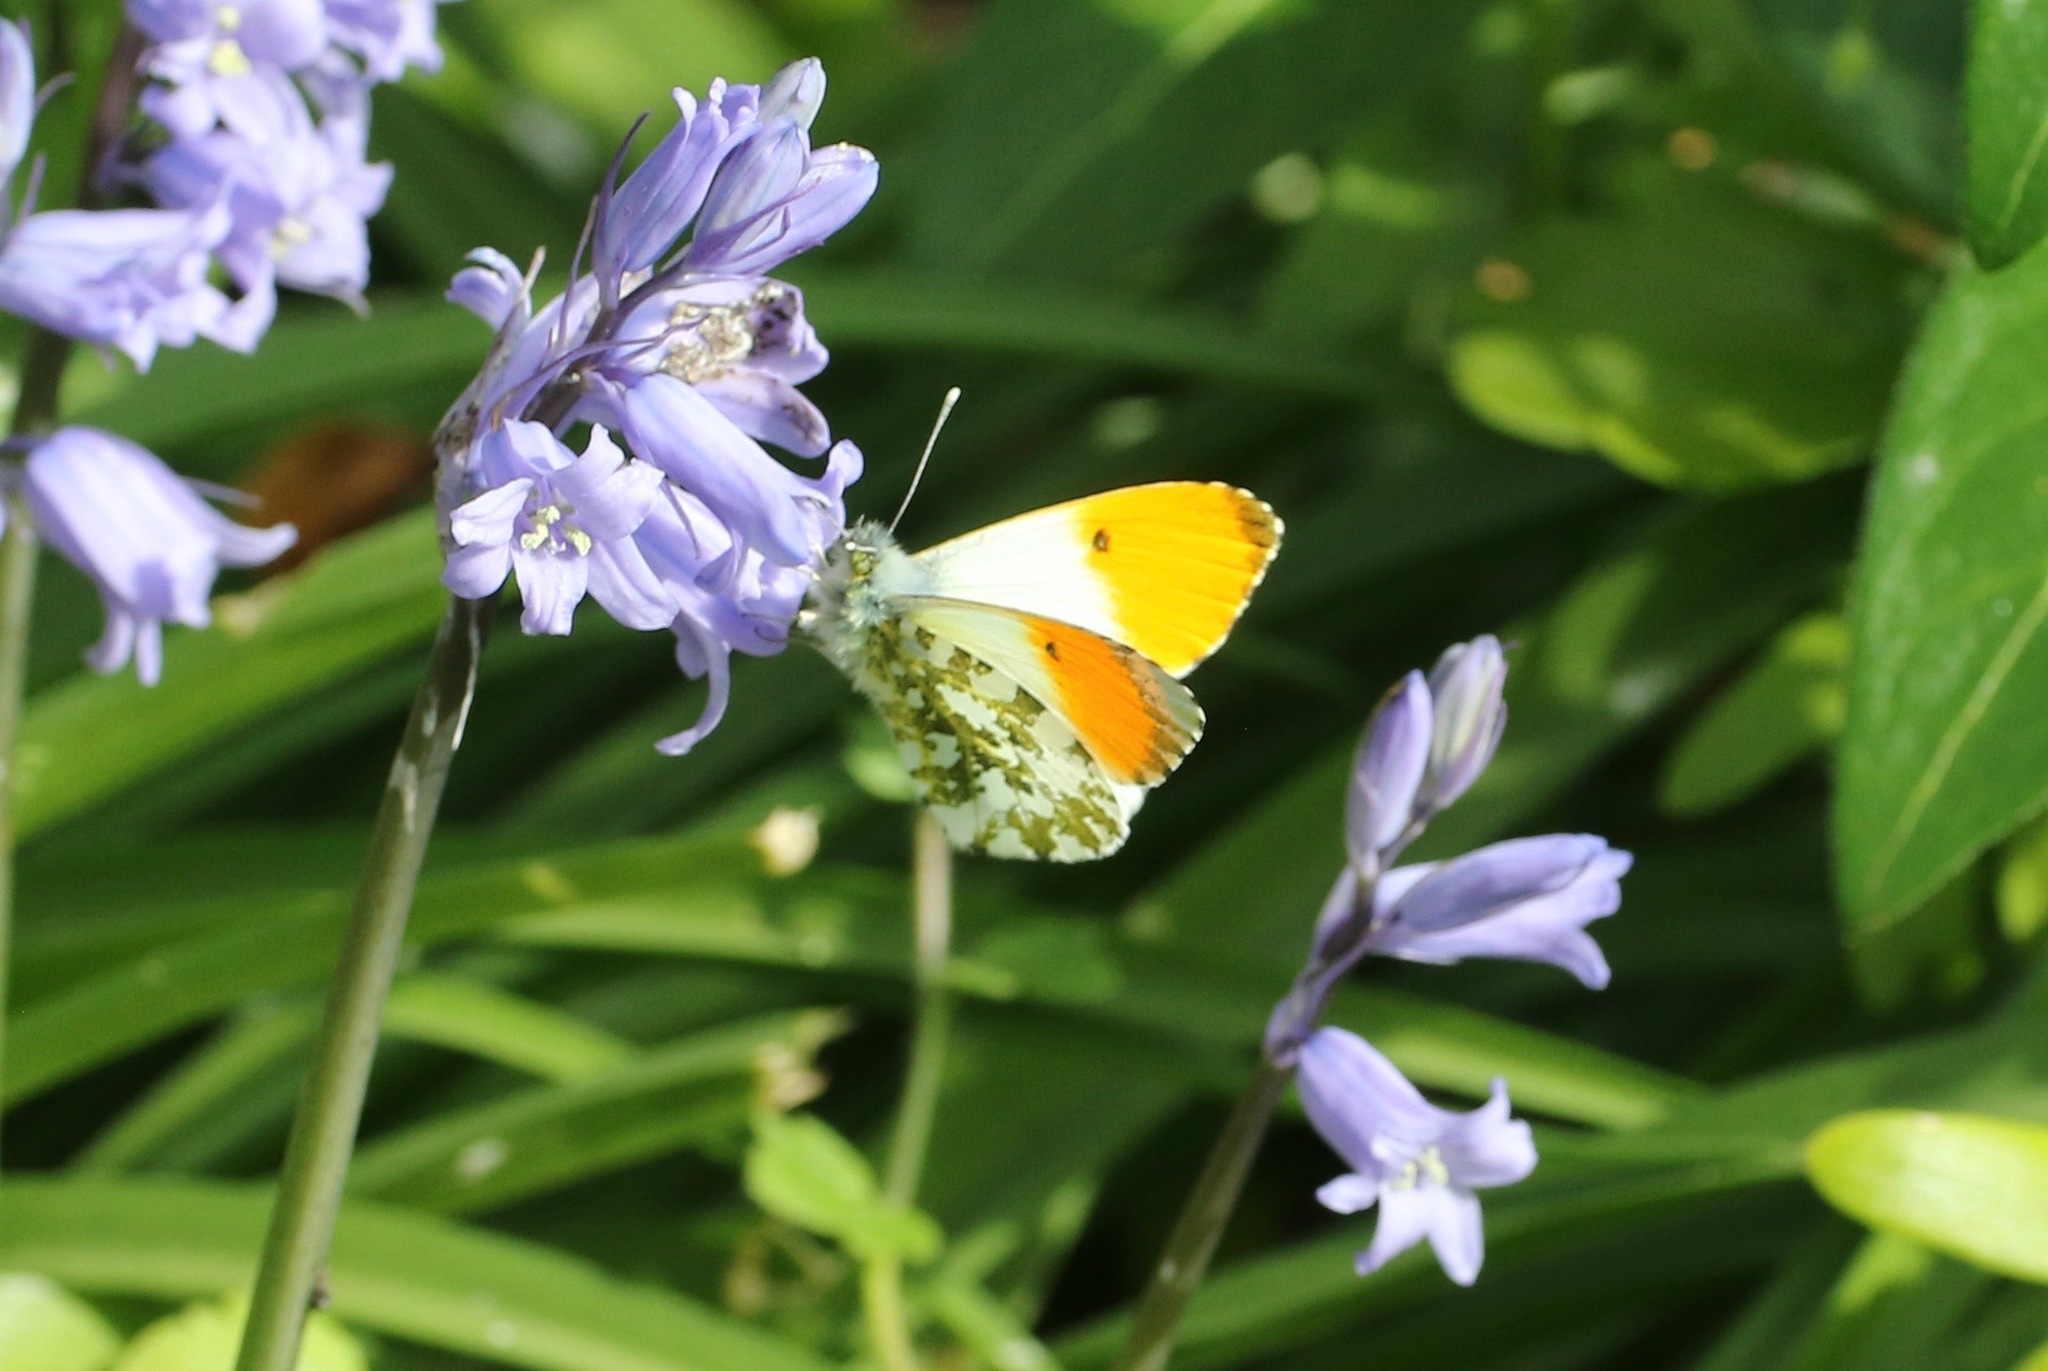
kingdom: Animalia
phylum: Arthropoda
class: Insecta
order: Lepidoptera
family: Pieridae
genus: Anthocharis
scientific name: Anthocharis cardamines
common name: Orange-tip
